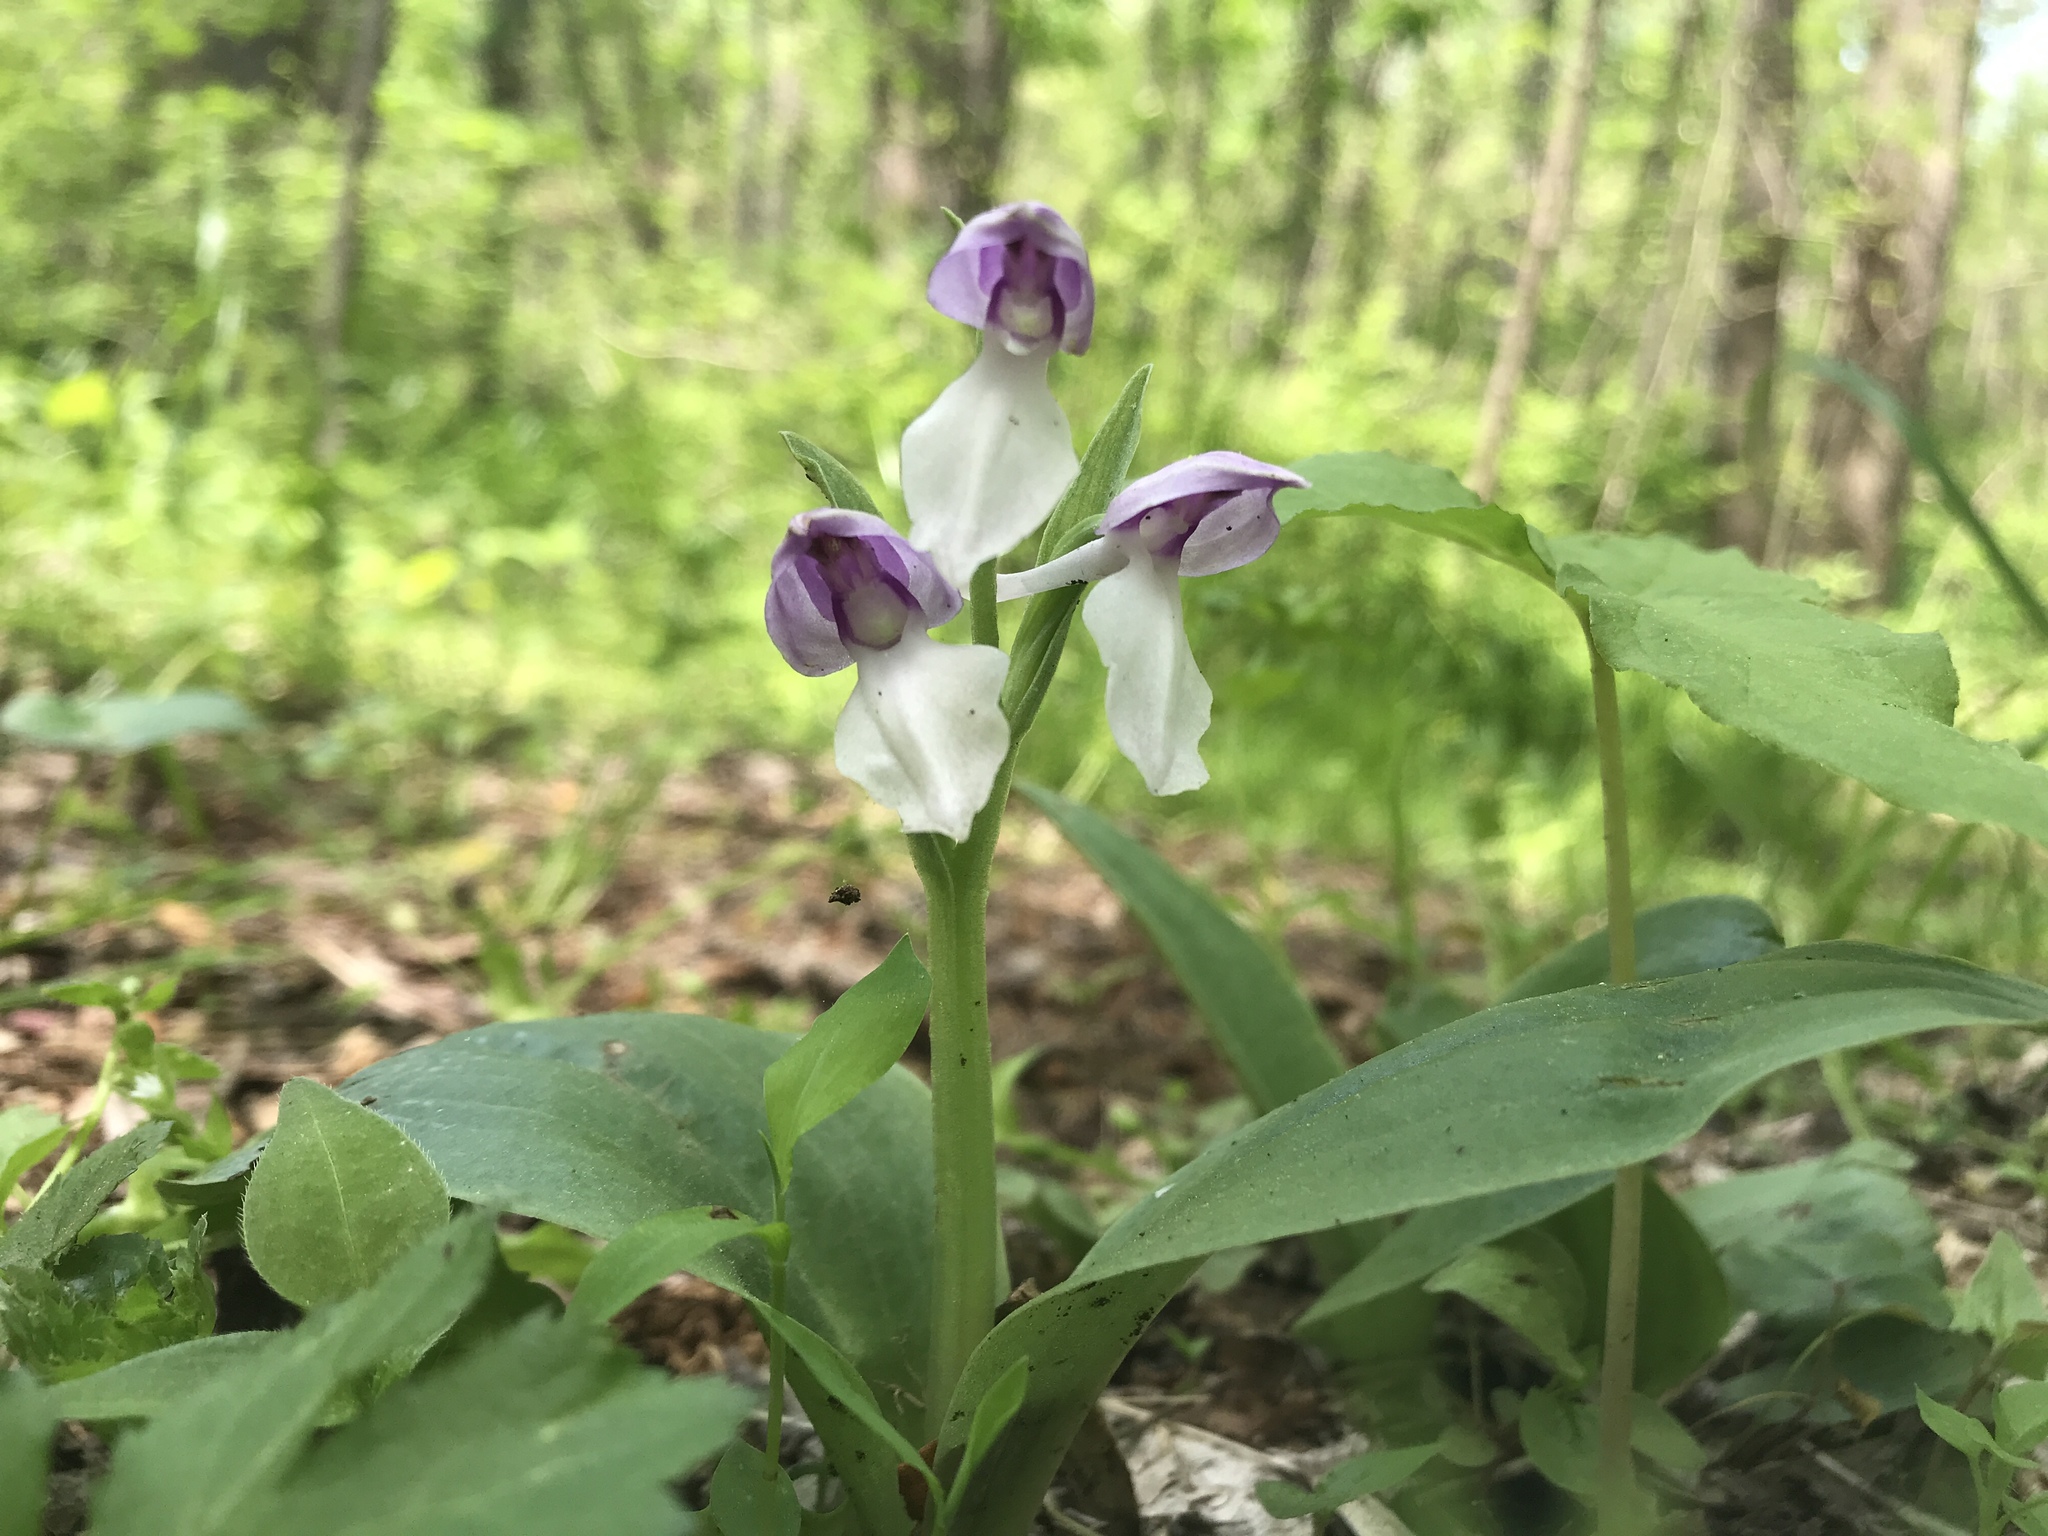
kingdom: Plantae
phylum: Tracheophyta
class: Liliopsida
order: Asparagales
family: Orchidaceae
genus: Galearis
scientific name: Galearis spectabilis
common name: Purple-hooded orchis
